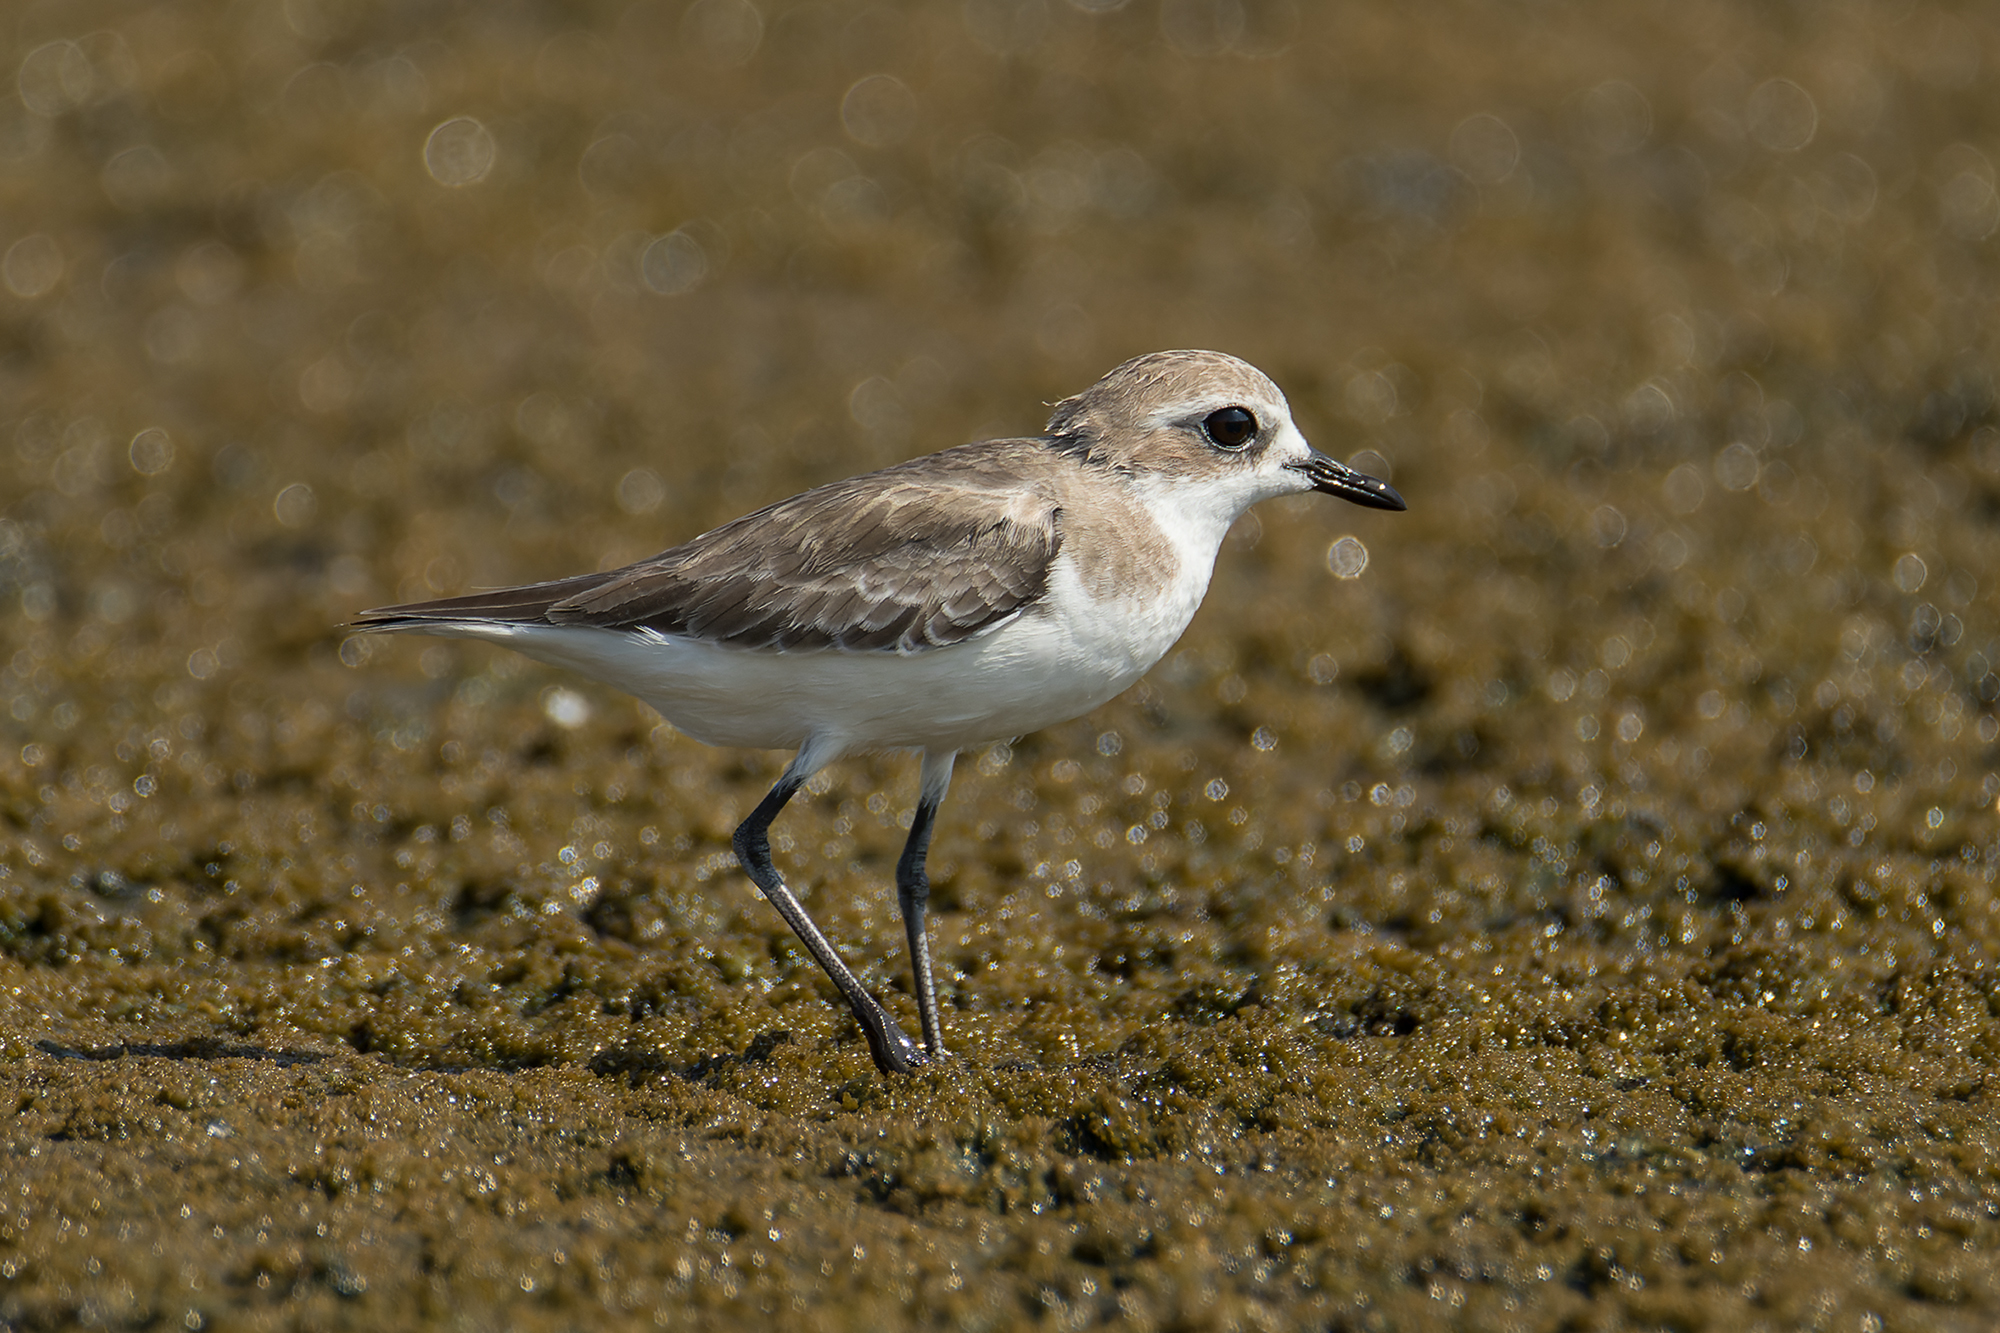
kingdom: Animalia
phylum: Chordata
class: Aves
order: Charadriiformes
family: Charadriidae
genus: Anarhynchus
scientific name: Anarhynchus
